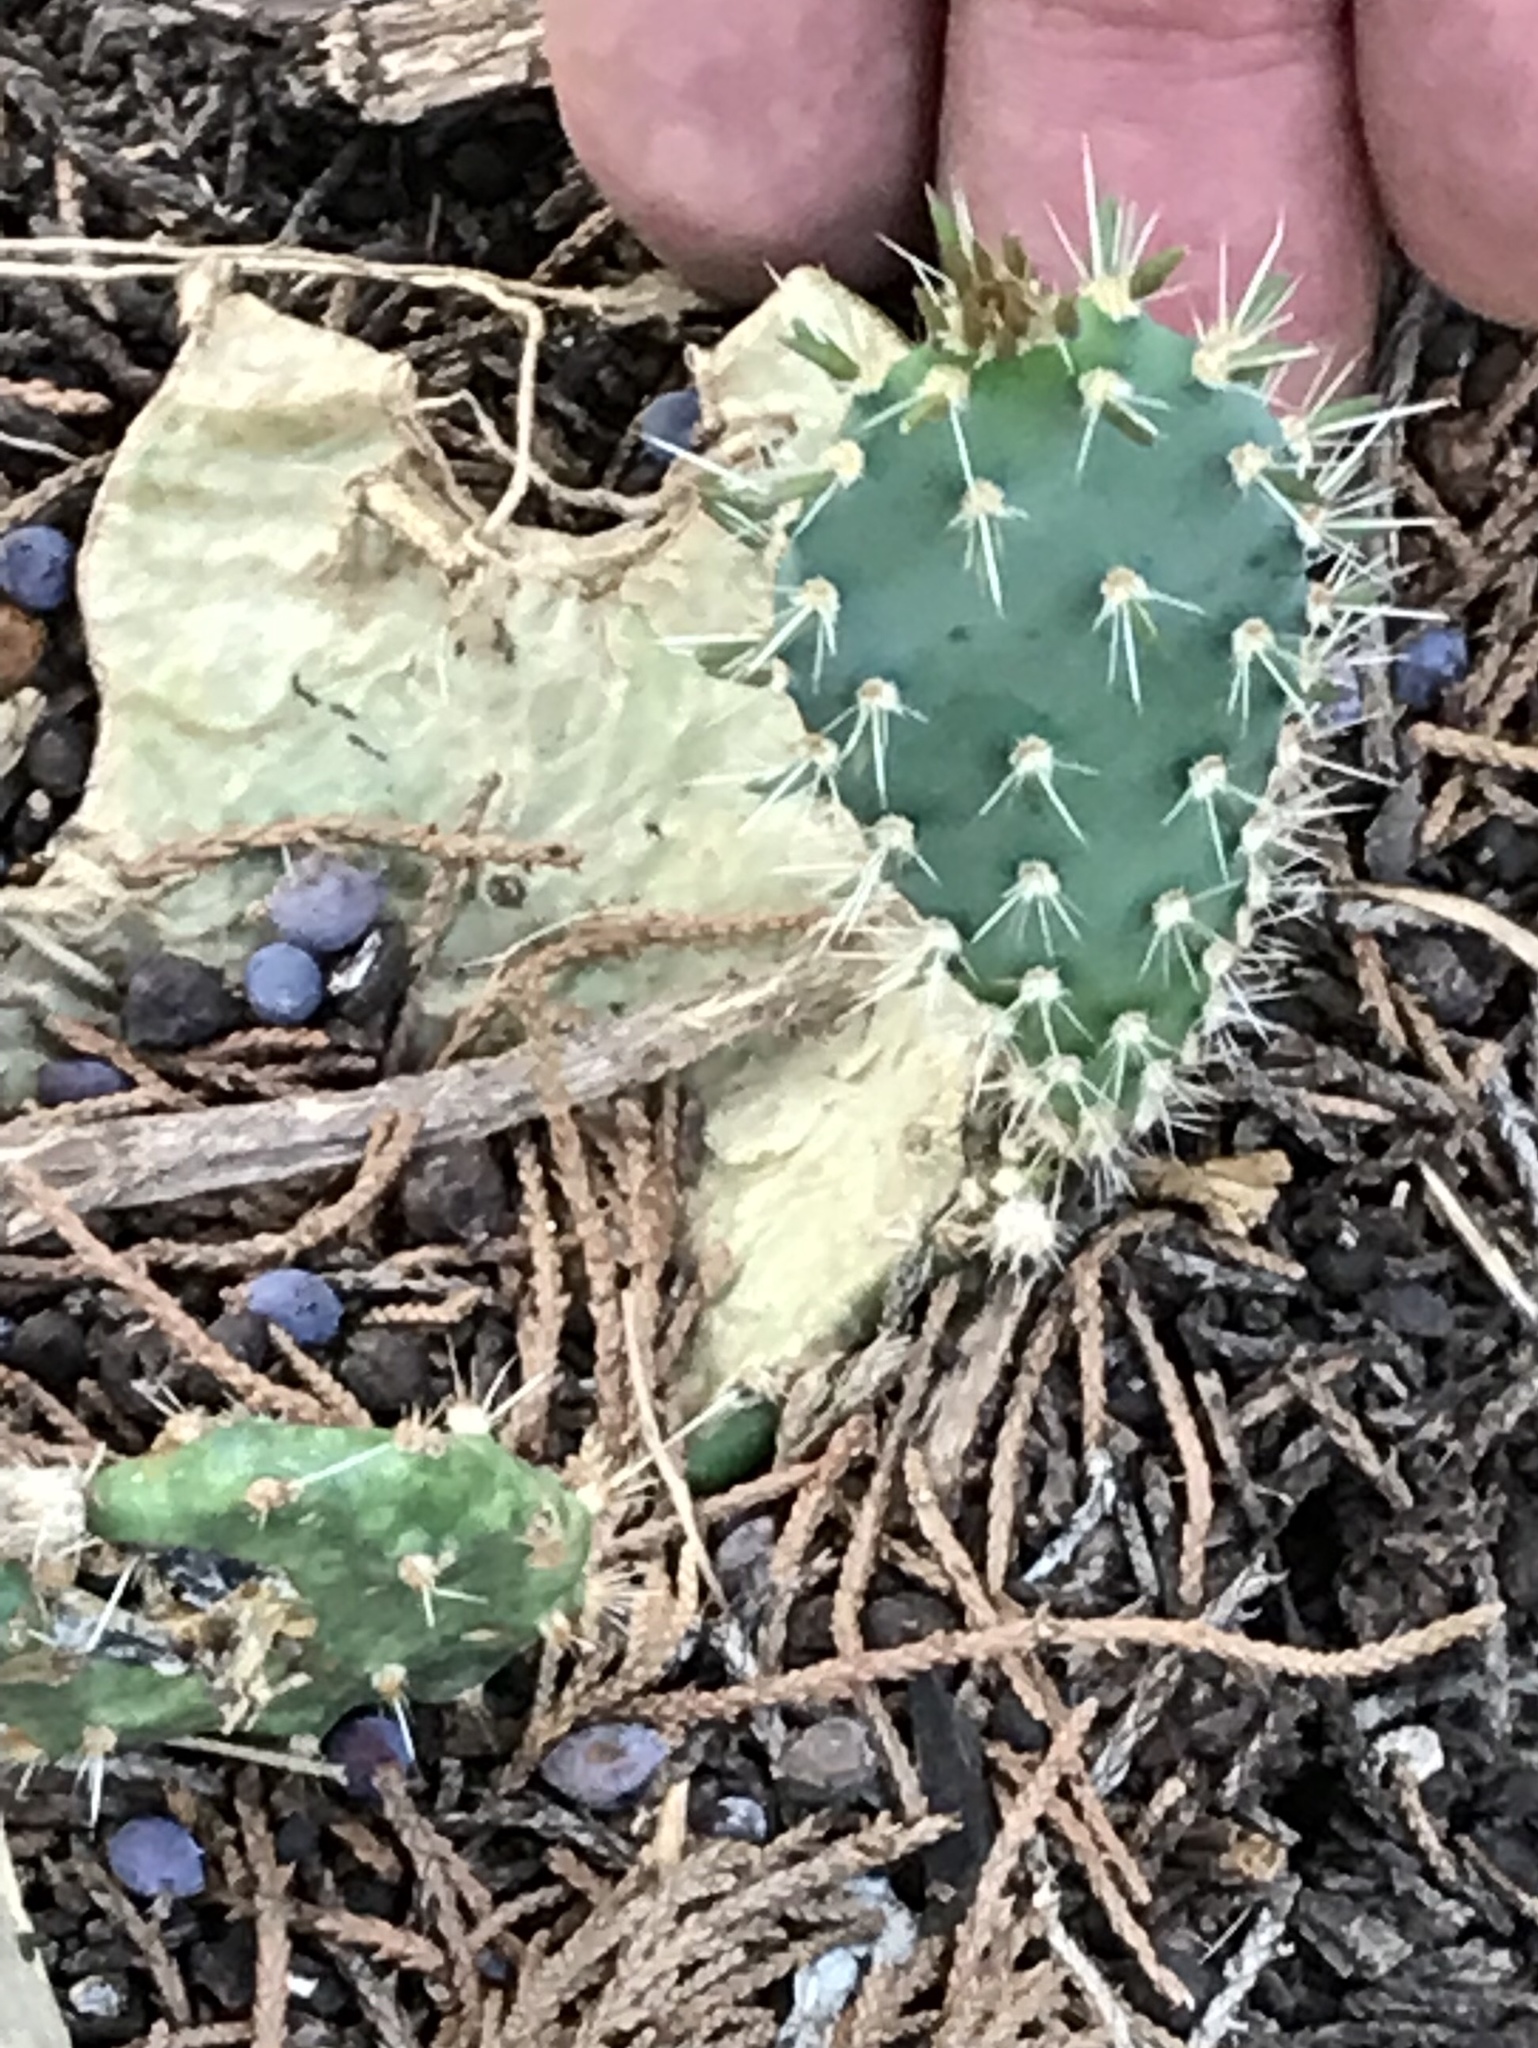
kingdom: Plantae
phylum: Tracheophyta
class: Magnoliopsida
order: Caryophyllales
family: Cactaceae
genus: Opuntia
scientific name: Opuntia engelmannii
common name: Cactus-apple
